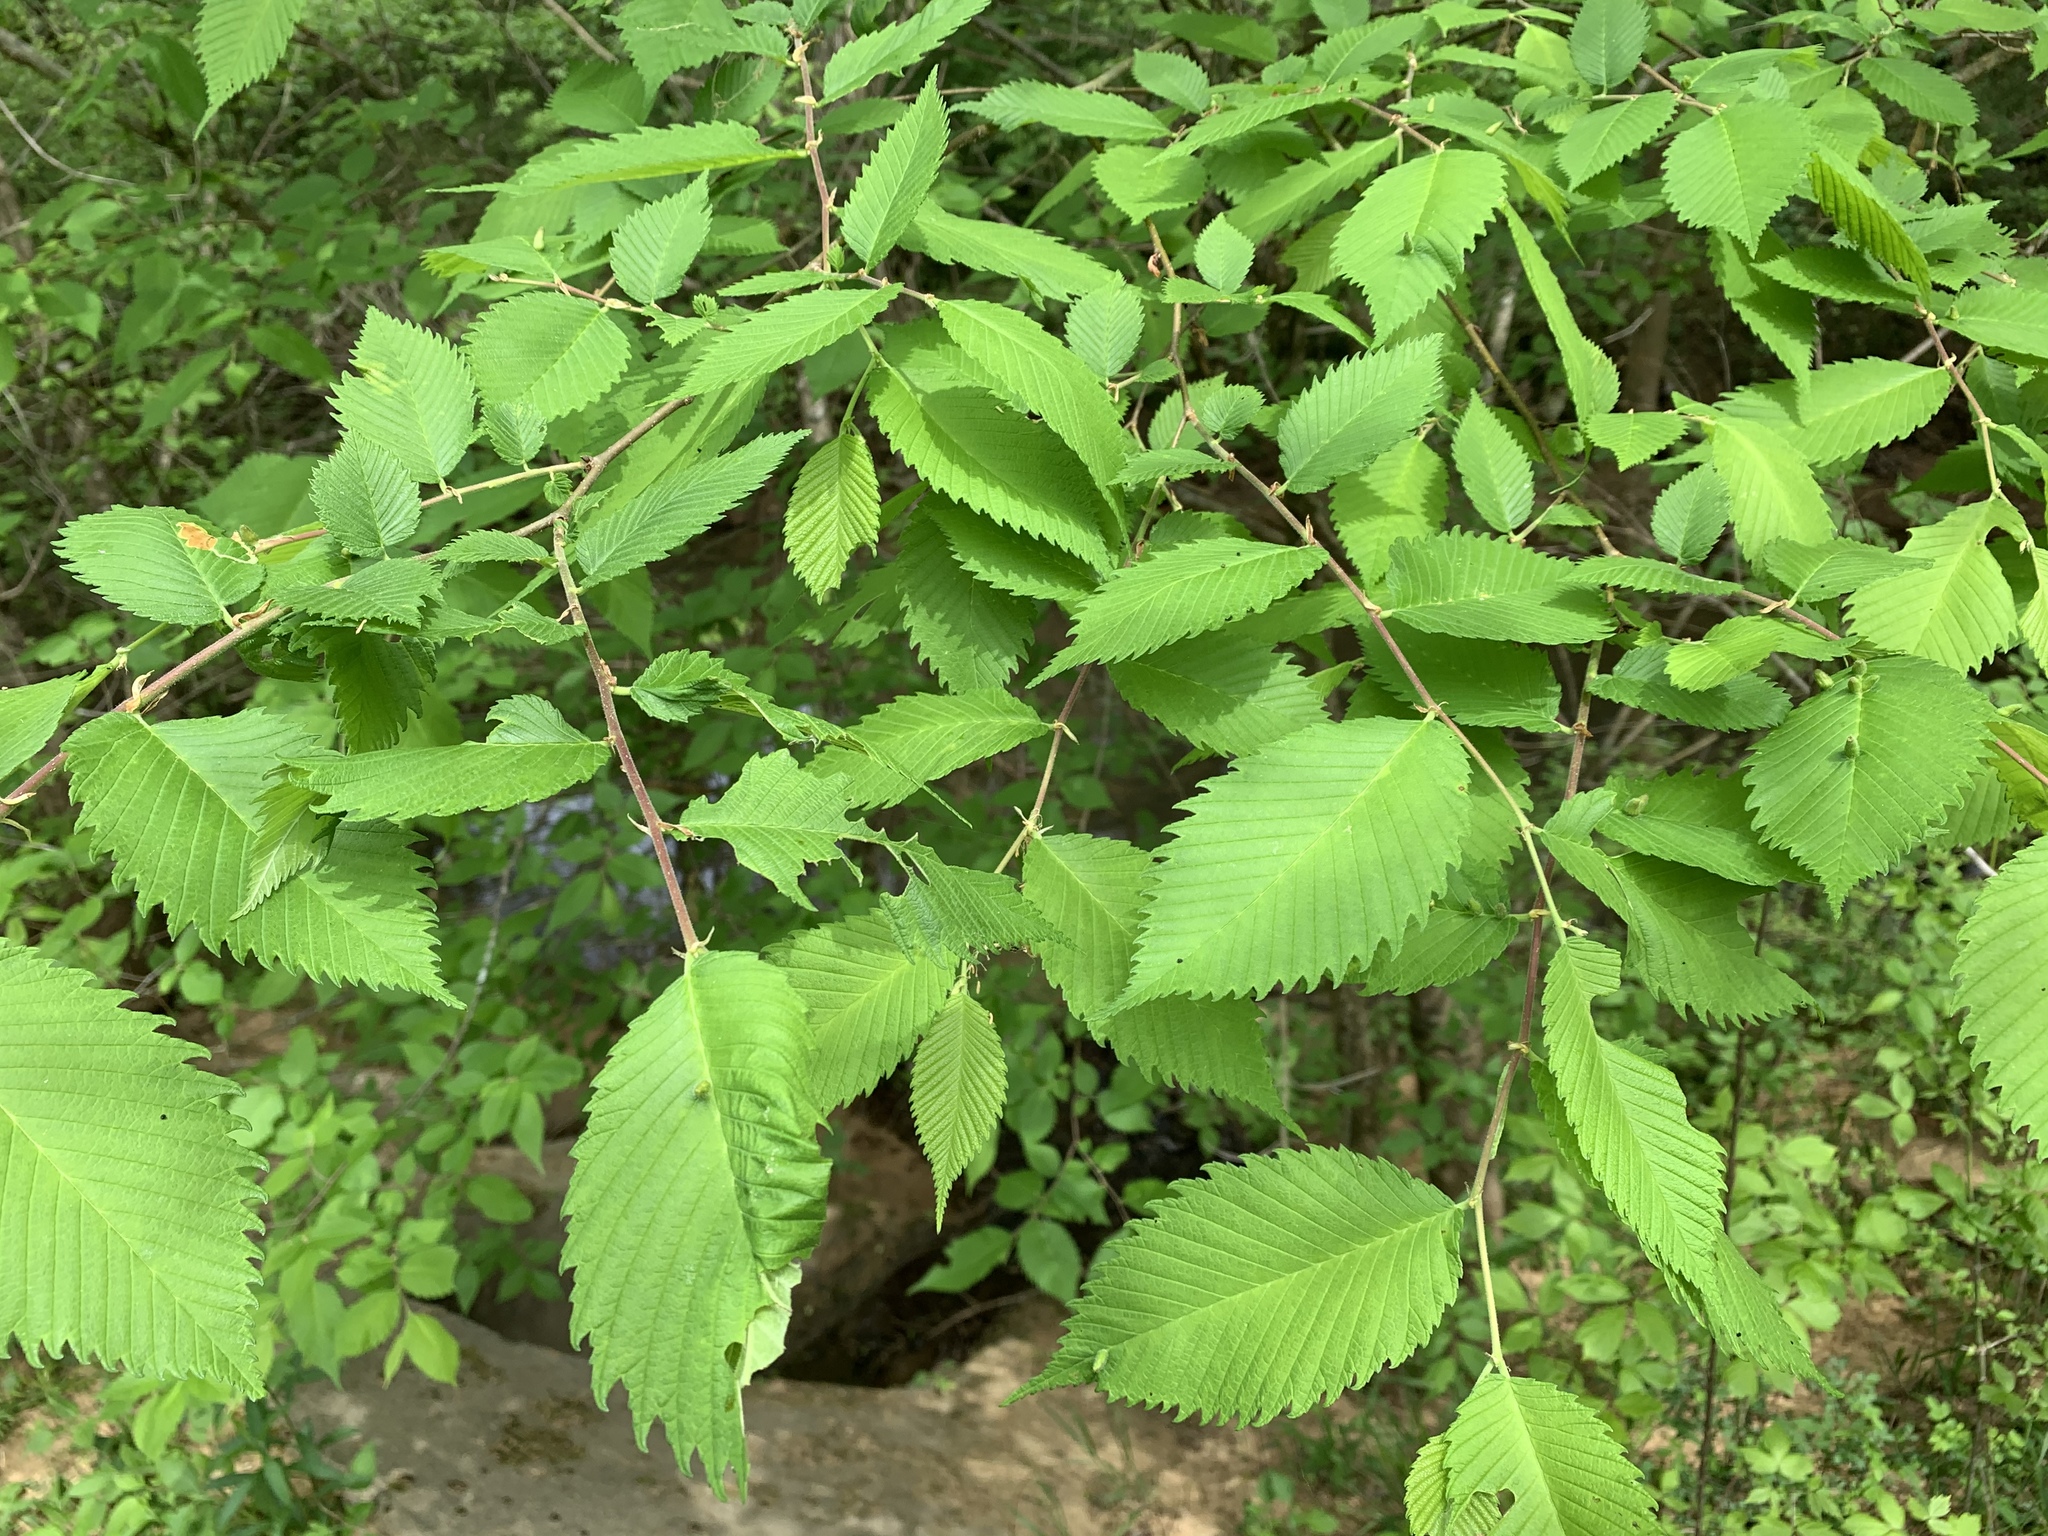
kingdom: Animalia
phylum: Arthropoda
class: Arachnida
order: Trombidiformes
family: Eriophyidae
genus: Aceria
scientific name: Aceria
